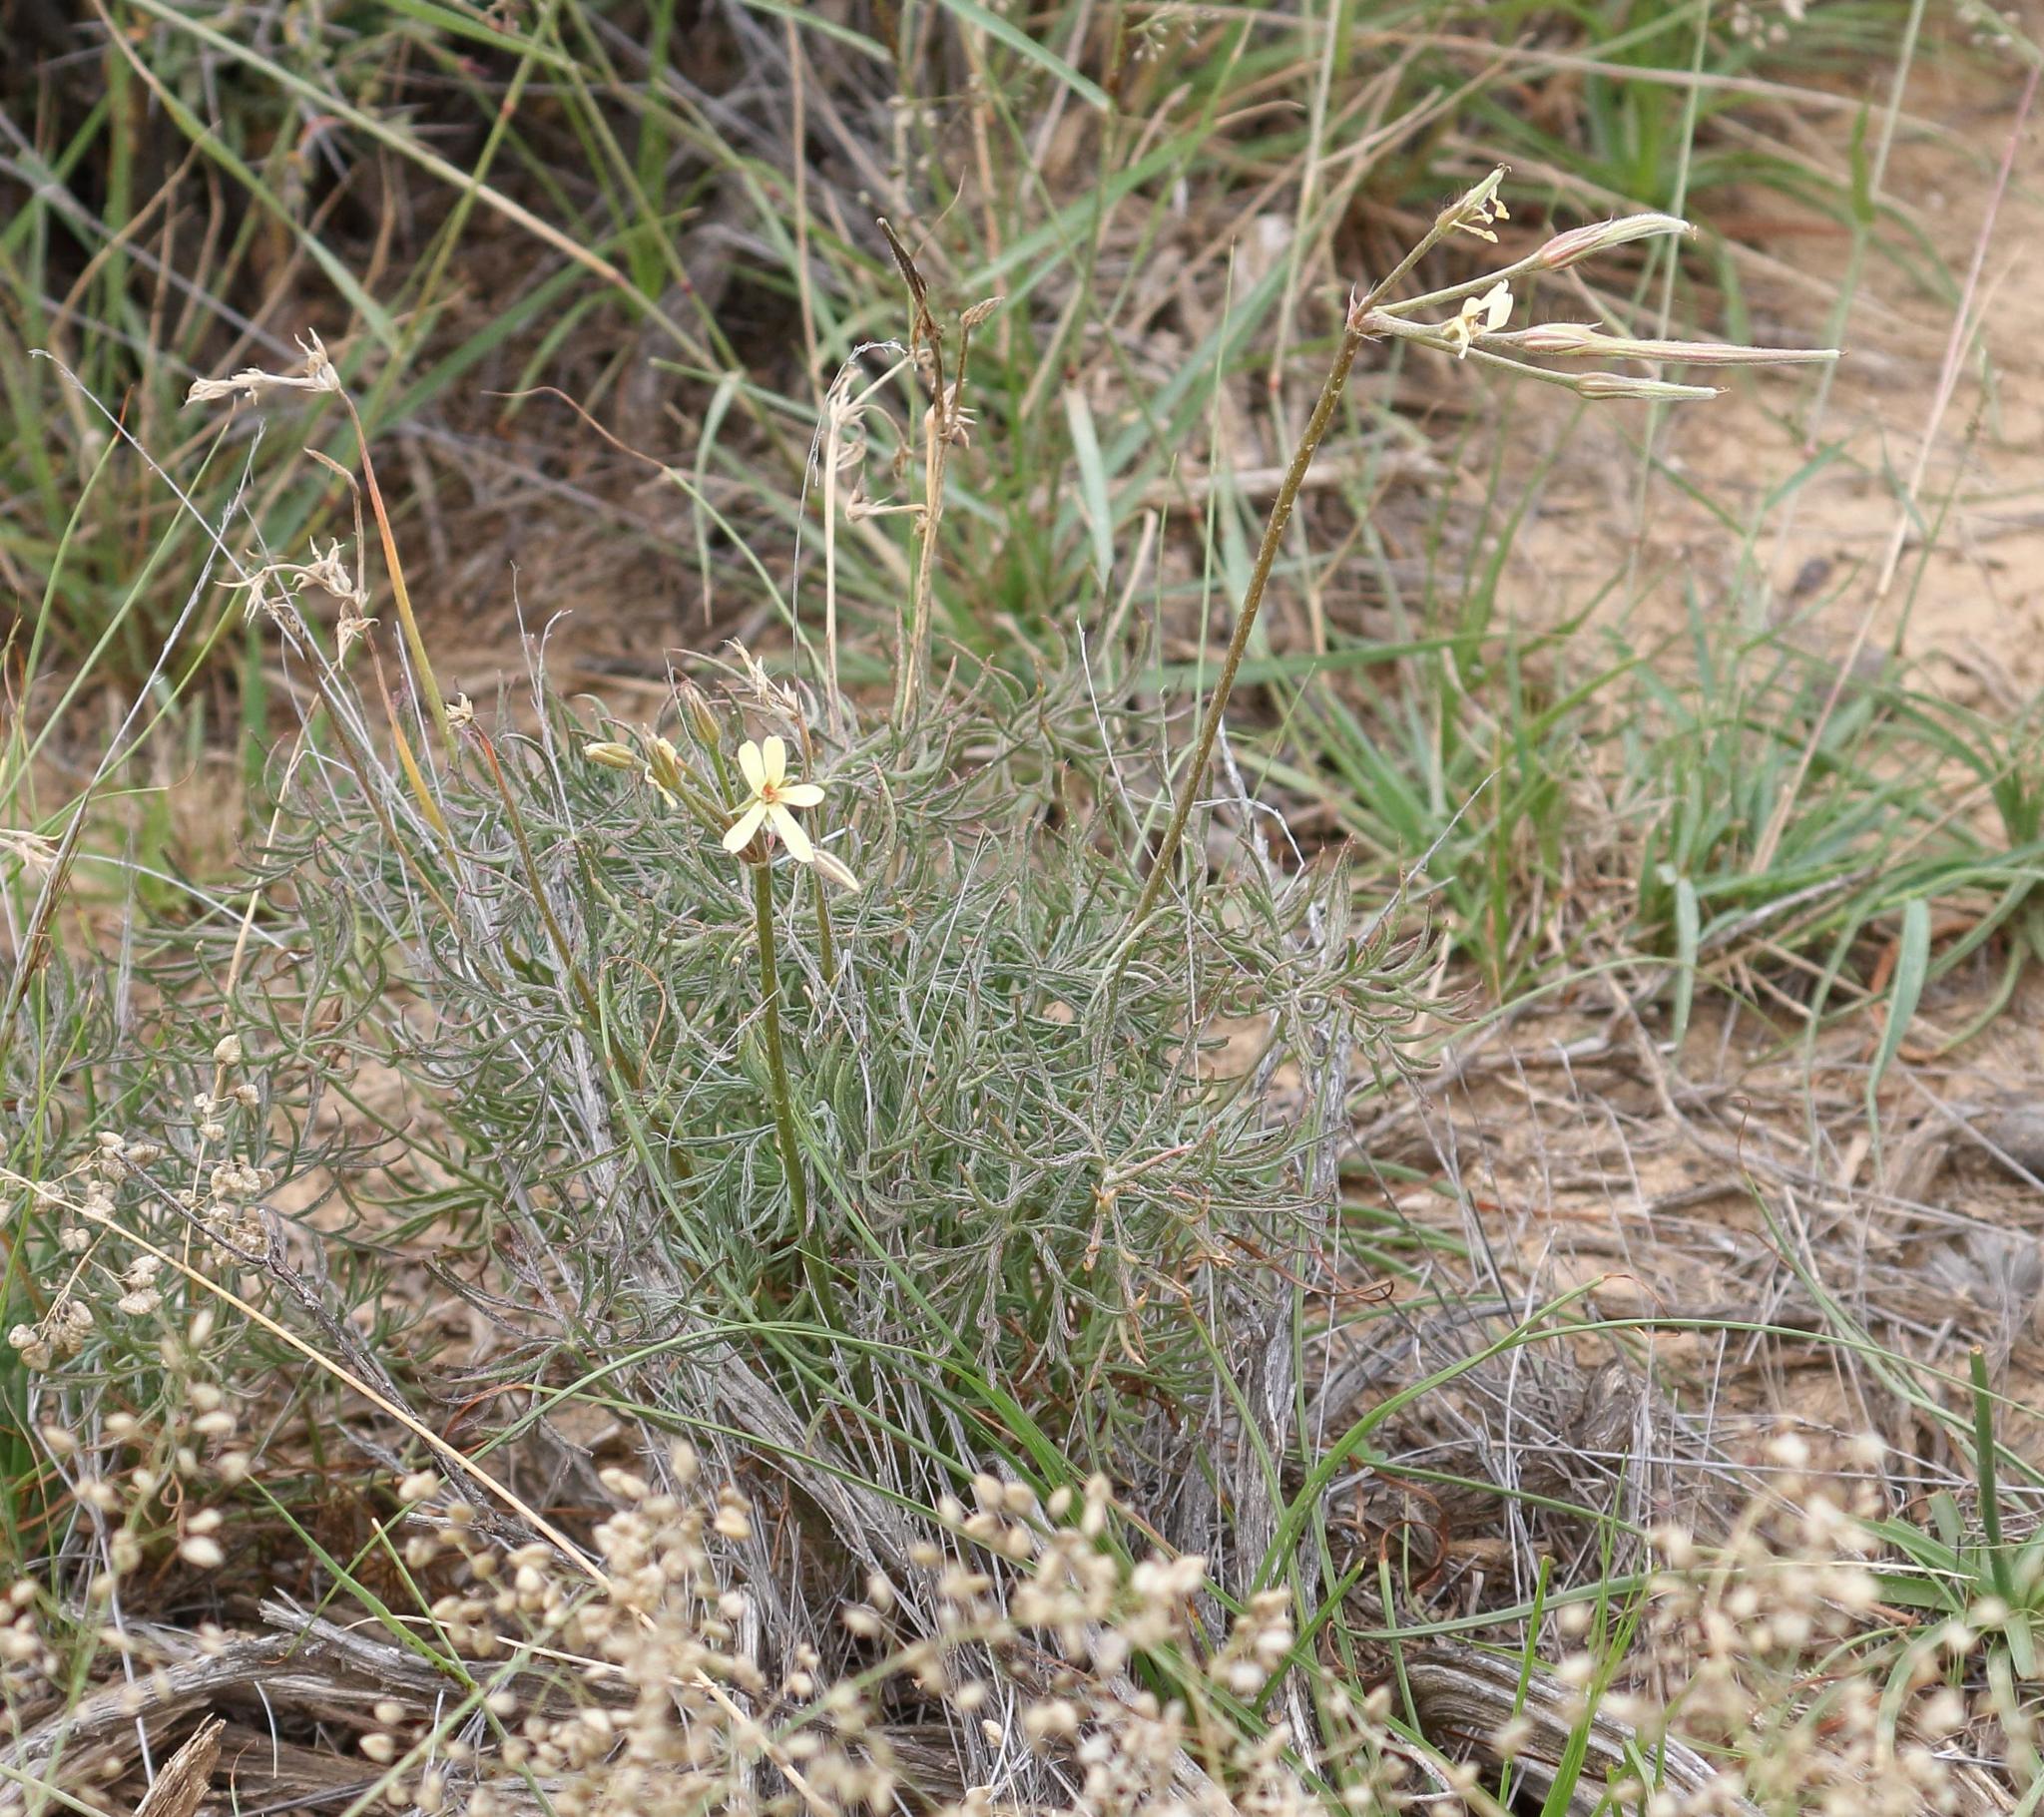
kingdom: Plantae
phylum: Tracheophyta
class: Magnoliopsida
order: Geraniales
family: Geraniaceae
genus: Pelargonium
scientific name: Pelargonium aridum
